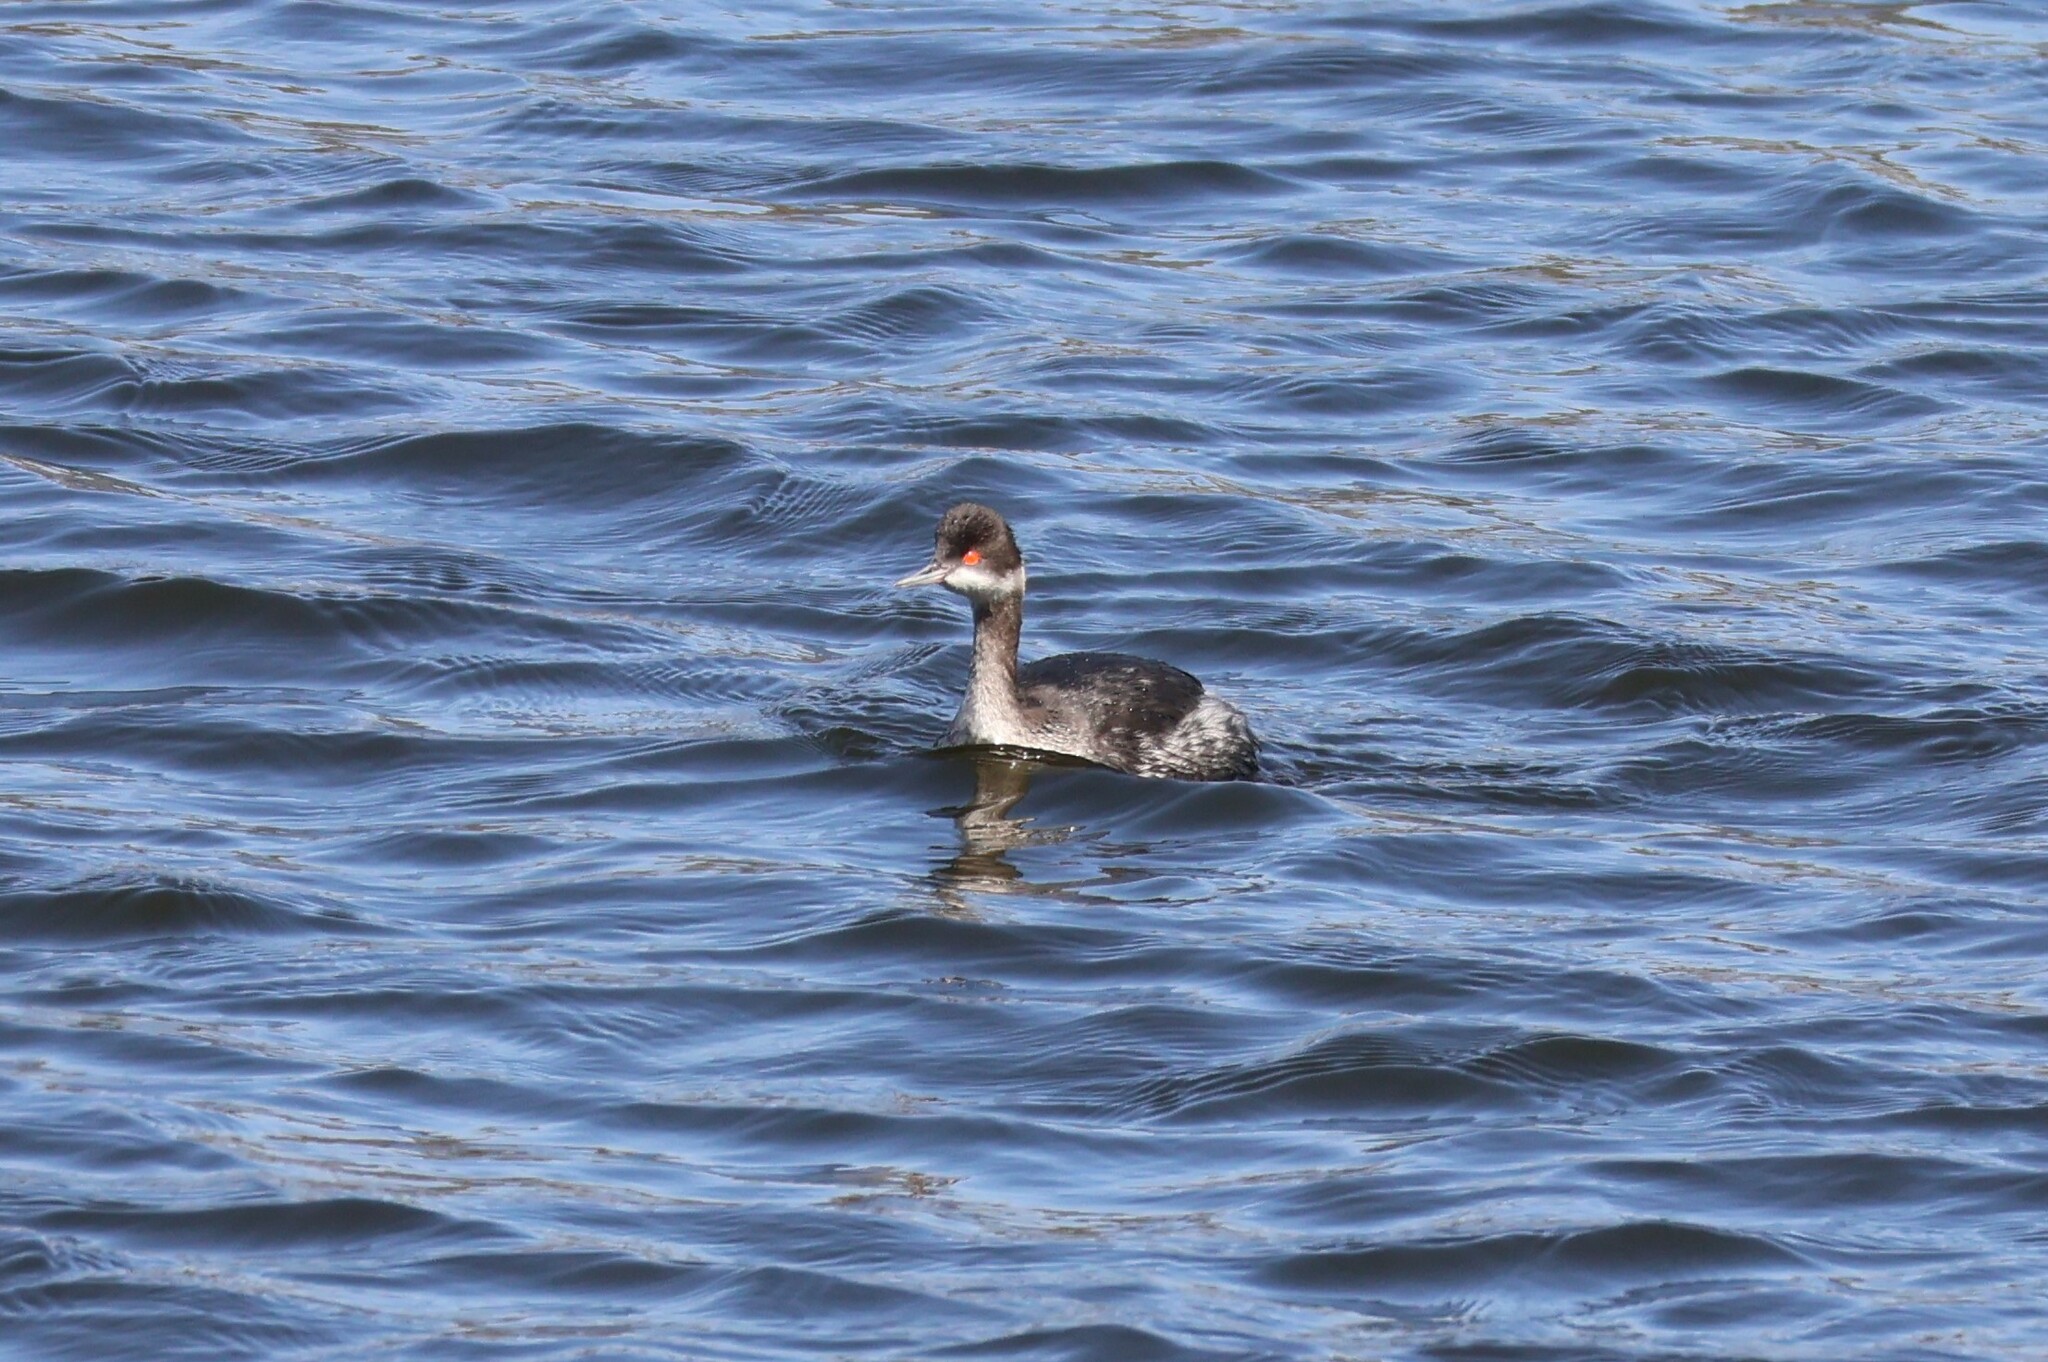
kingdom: Animalia
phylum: Chordata
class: Aves
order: Podicipediformes
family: Podicipedidae
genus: Podiceps
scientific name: Podiceps nigricollis
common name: Black-necked grebe
